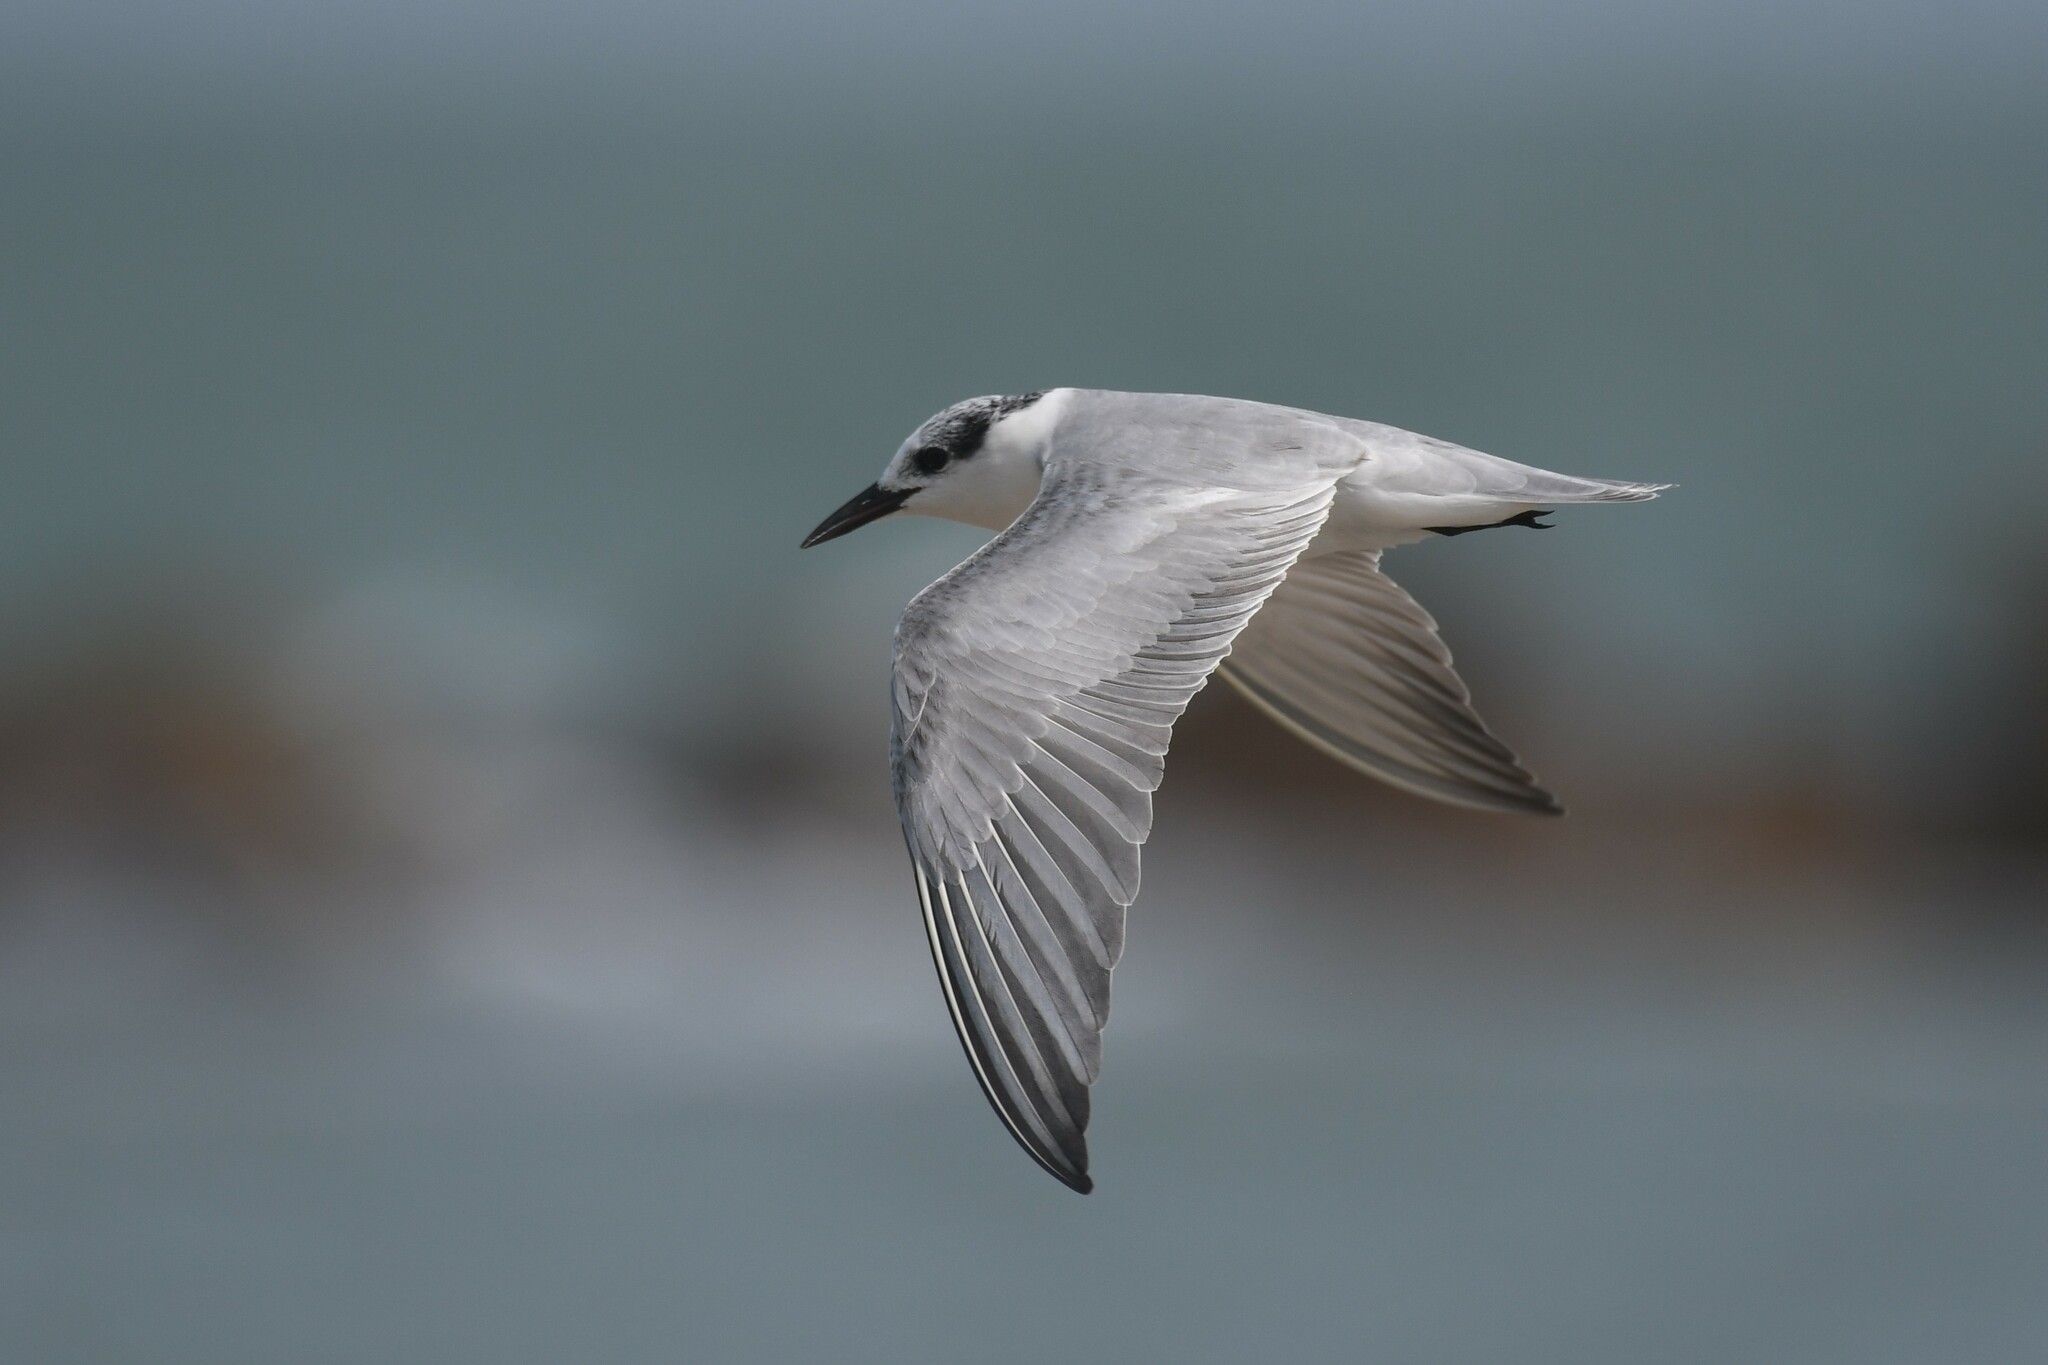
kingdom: Animalia
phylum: Chordata
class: Aves
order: Charadriiformes
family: Laridae
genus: Chlidonias
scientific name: Chlidonias hybrida
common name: Whiskered tern
